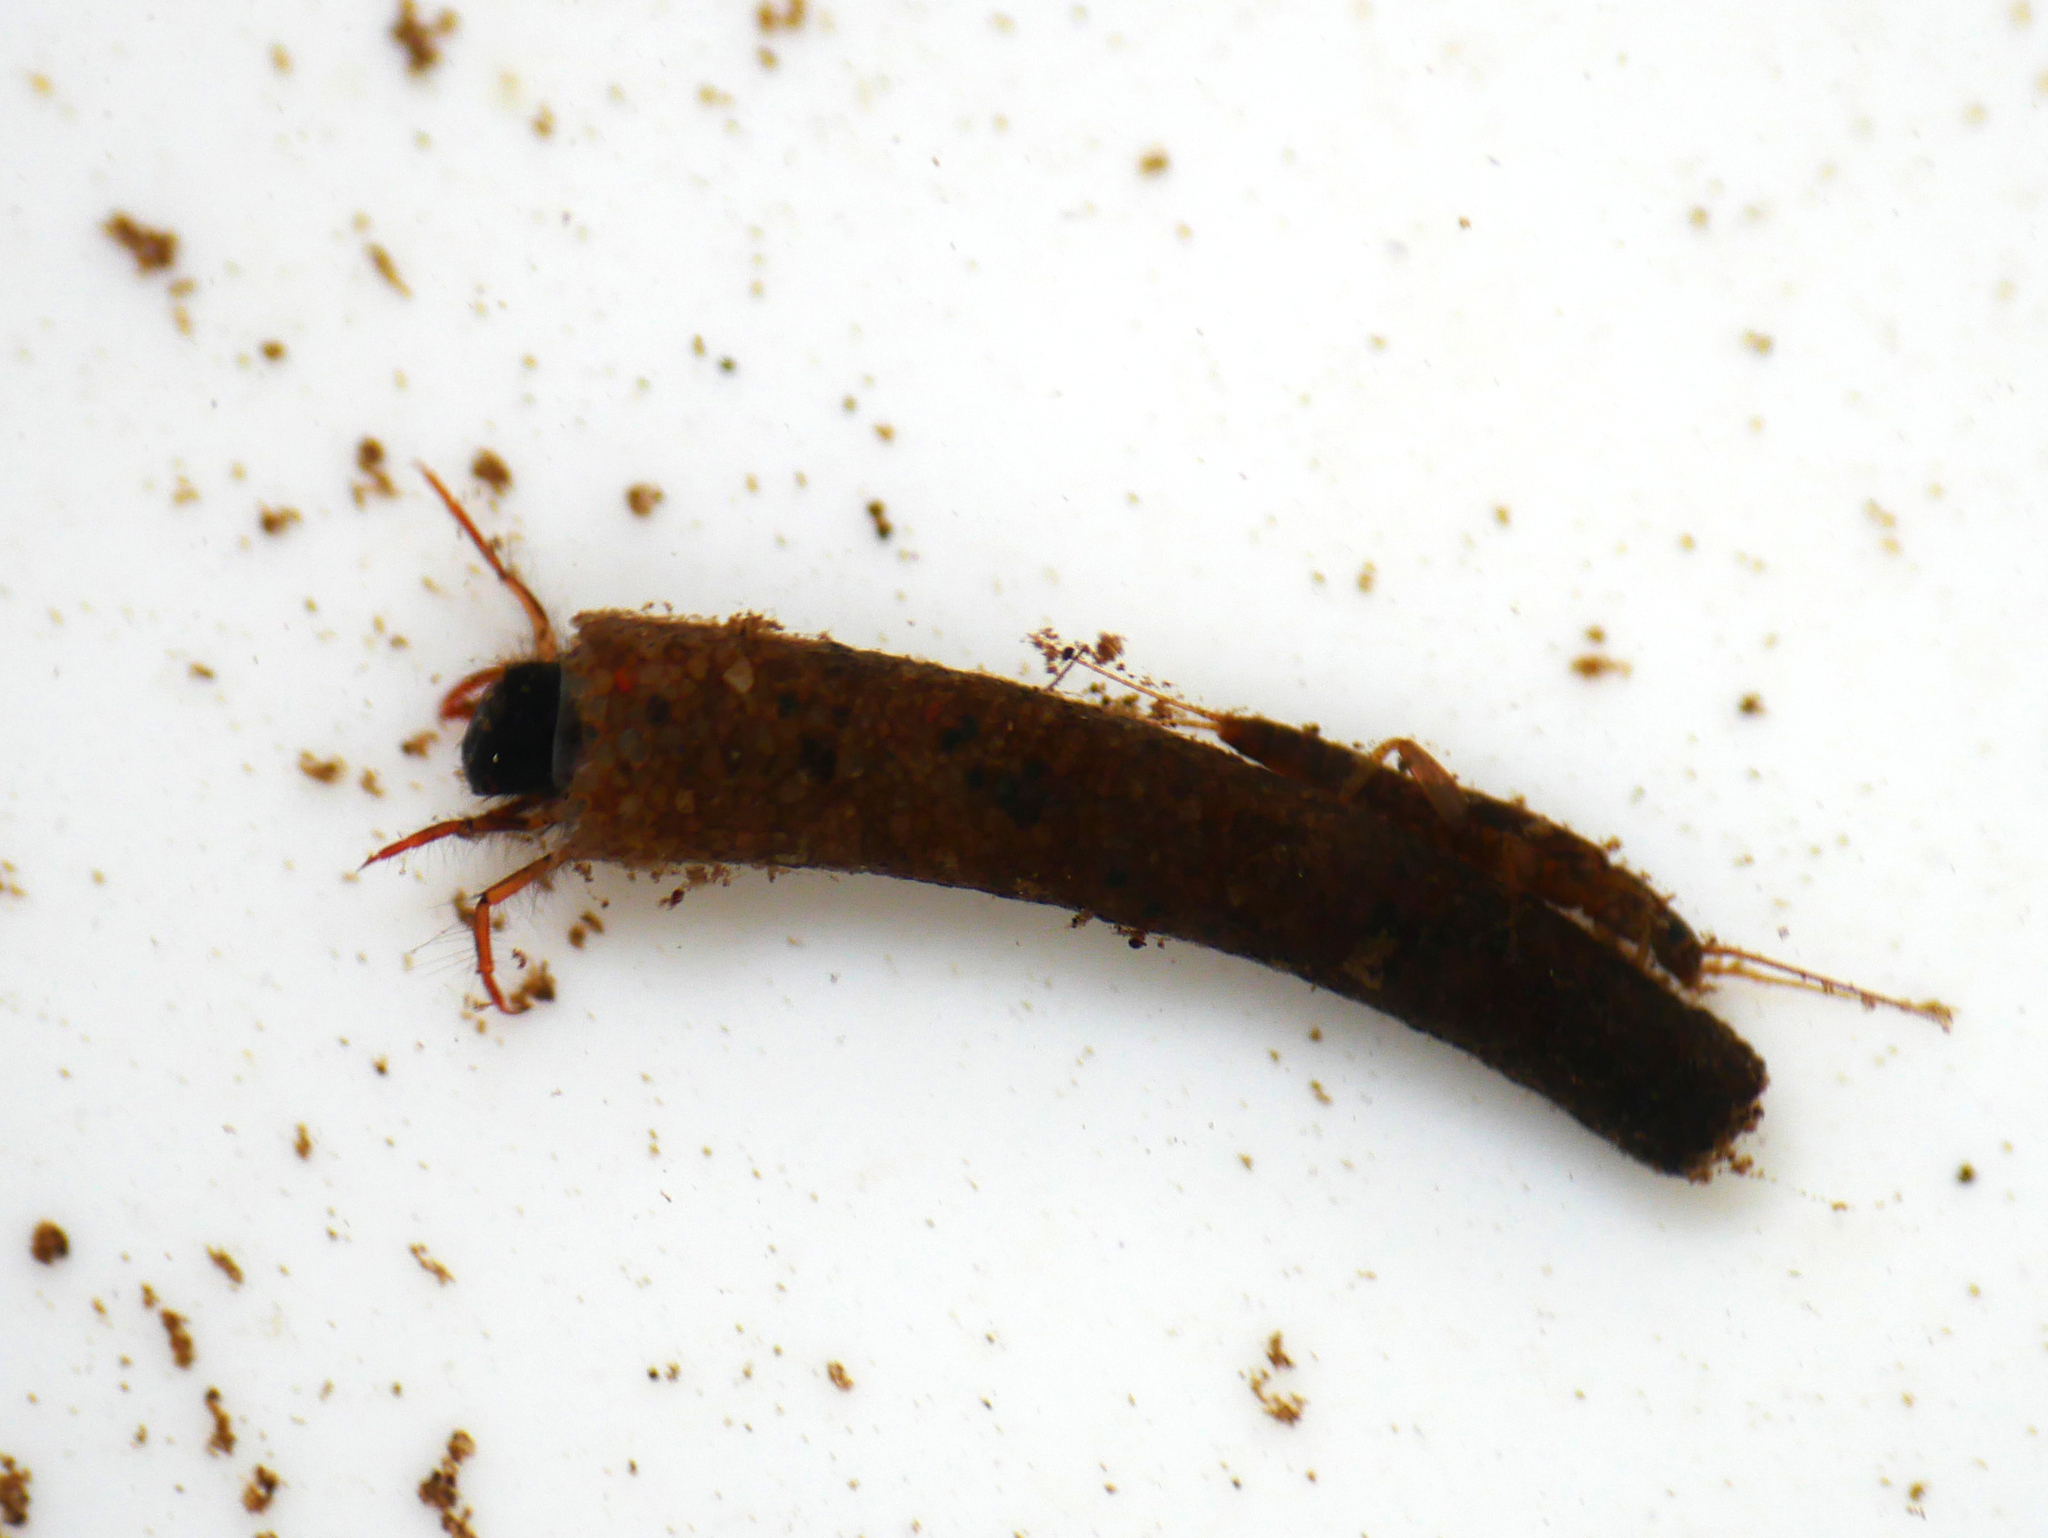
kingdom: Animalia
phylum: Arthropoda
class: Insecta
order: Trichoptera
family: Sericostomatidae
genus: Sericostoma
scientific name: Sericostoma personatum
